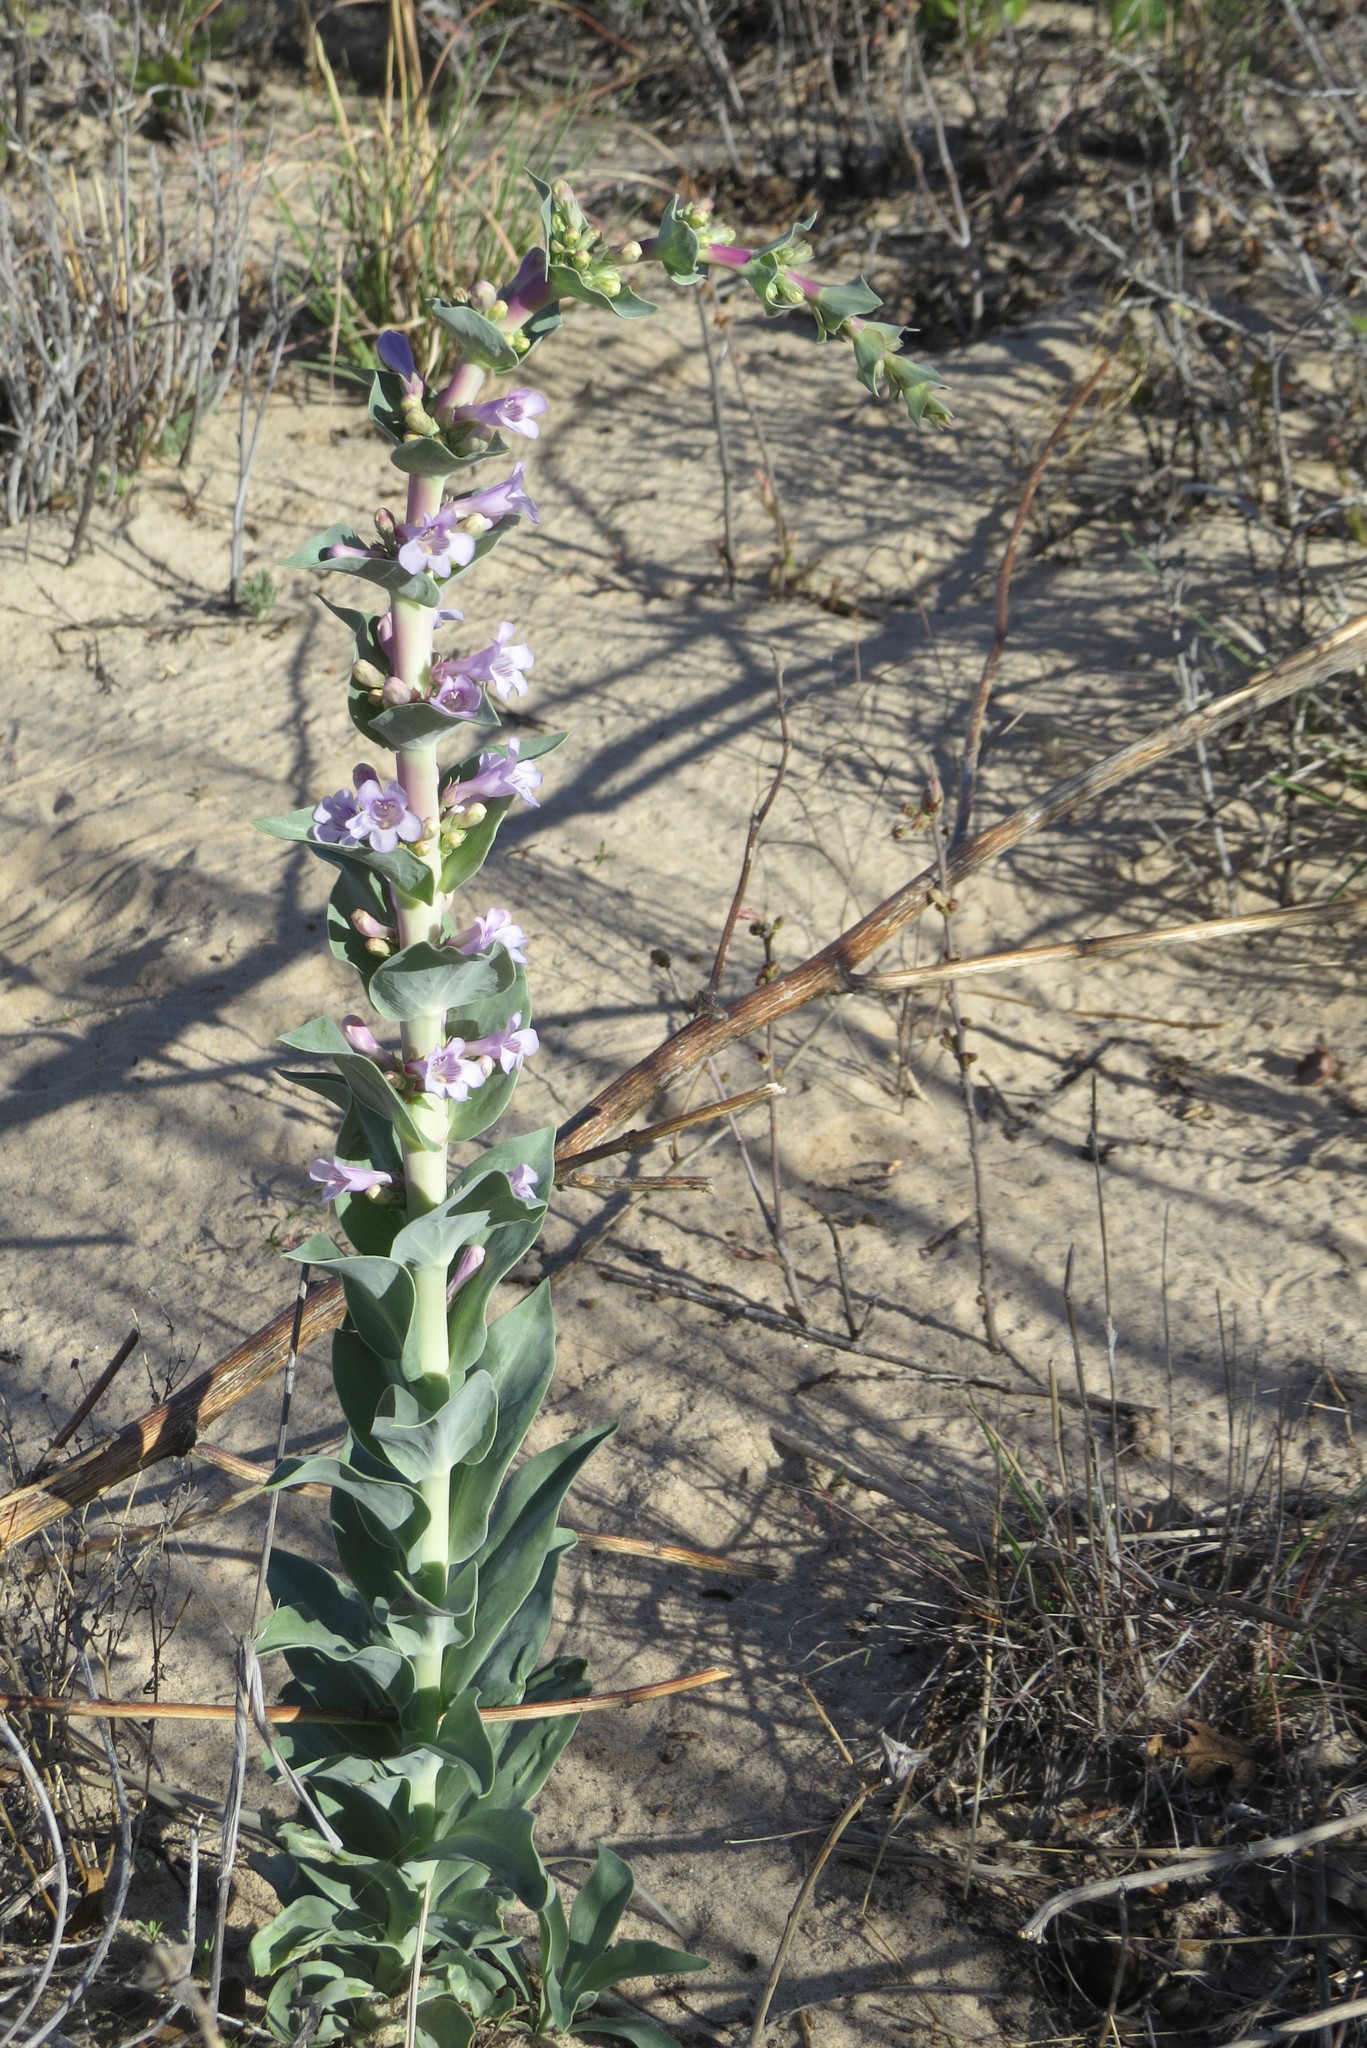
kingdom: Plantae
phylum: Tracheophyta
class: Magnoliopsida
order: Lamiales
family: Plantaginaceae
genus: Penstemon
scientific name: Penstemon buckleyi
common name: Buckley's penstemon
